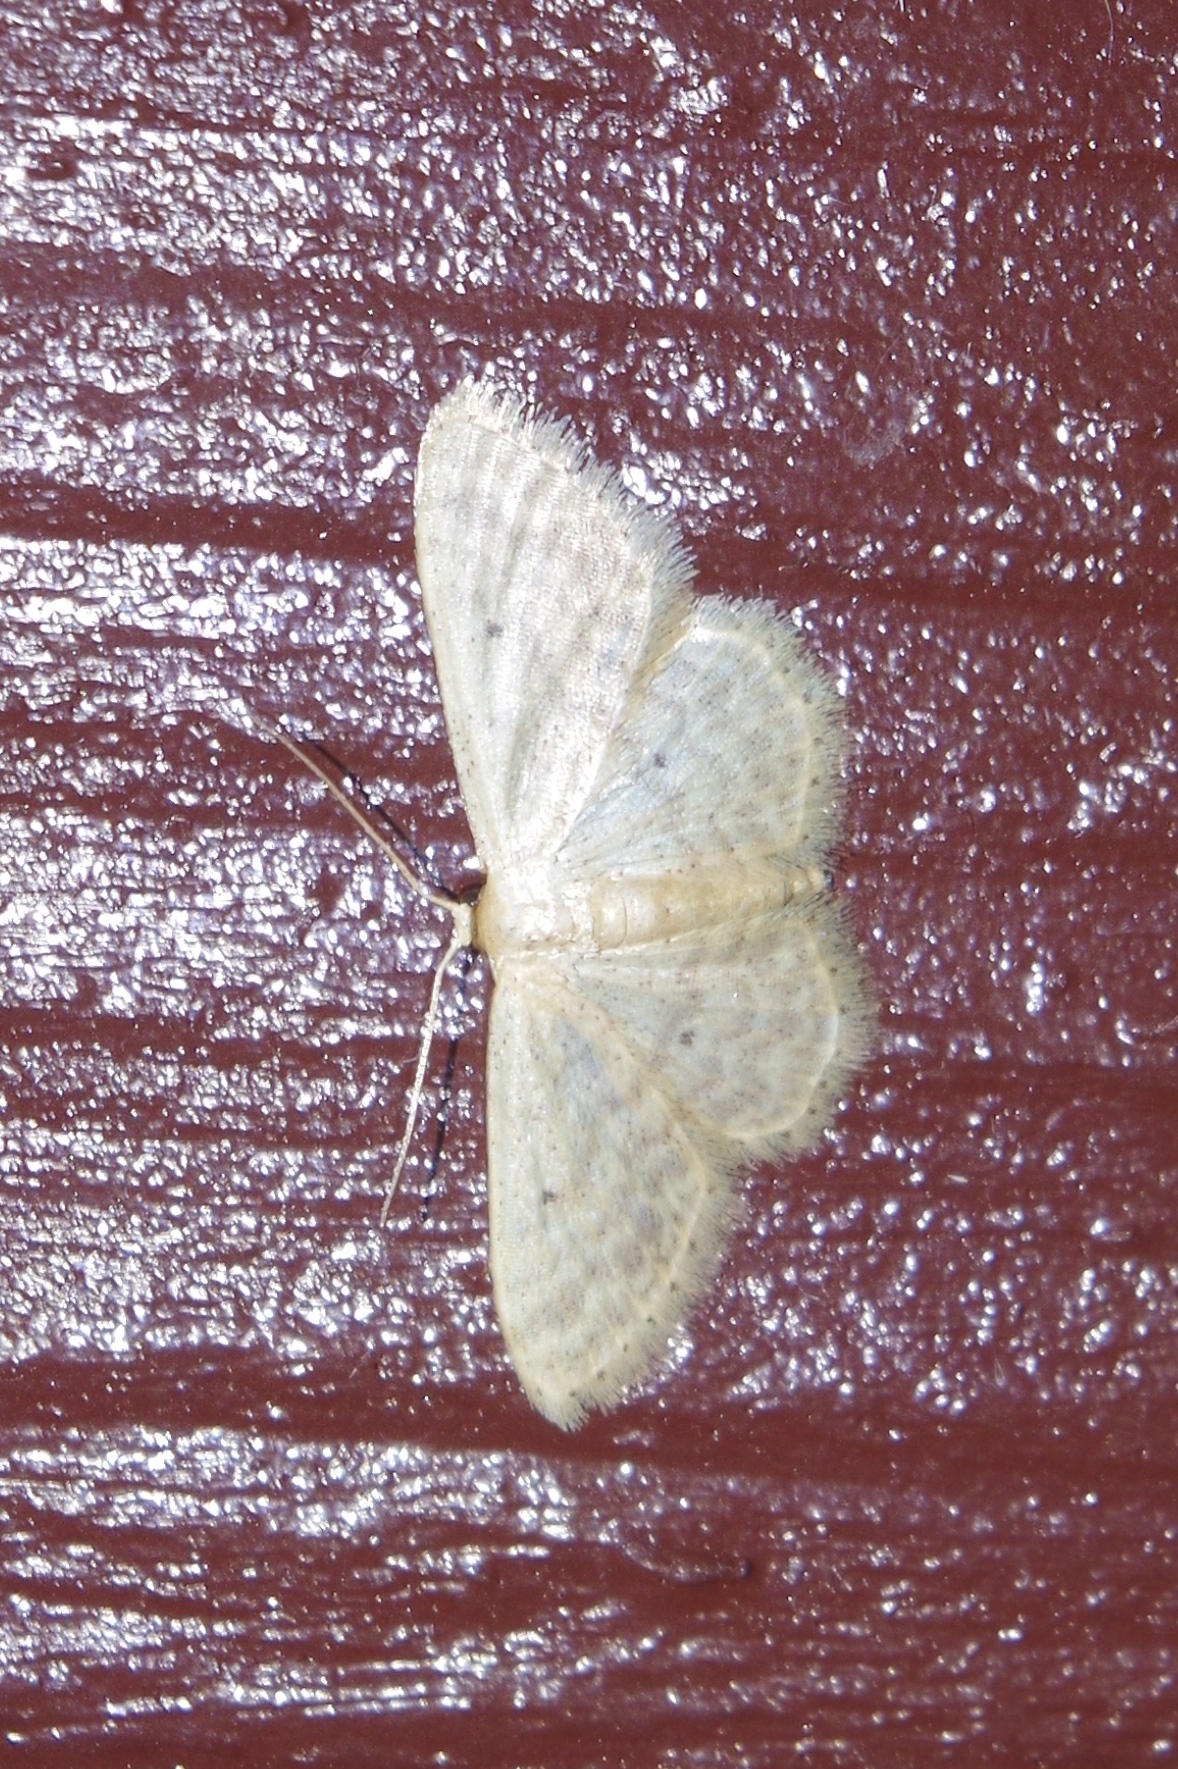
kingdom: Animalia
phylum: Arthropoda
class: Insecta
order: Lepidoptera
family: Geometridae
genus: Scopula
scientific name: Scopula personata
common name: Cankerworm
